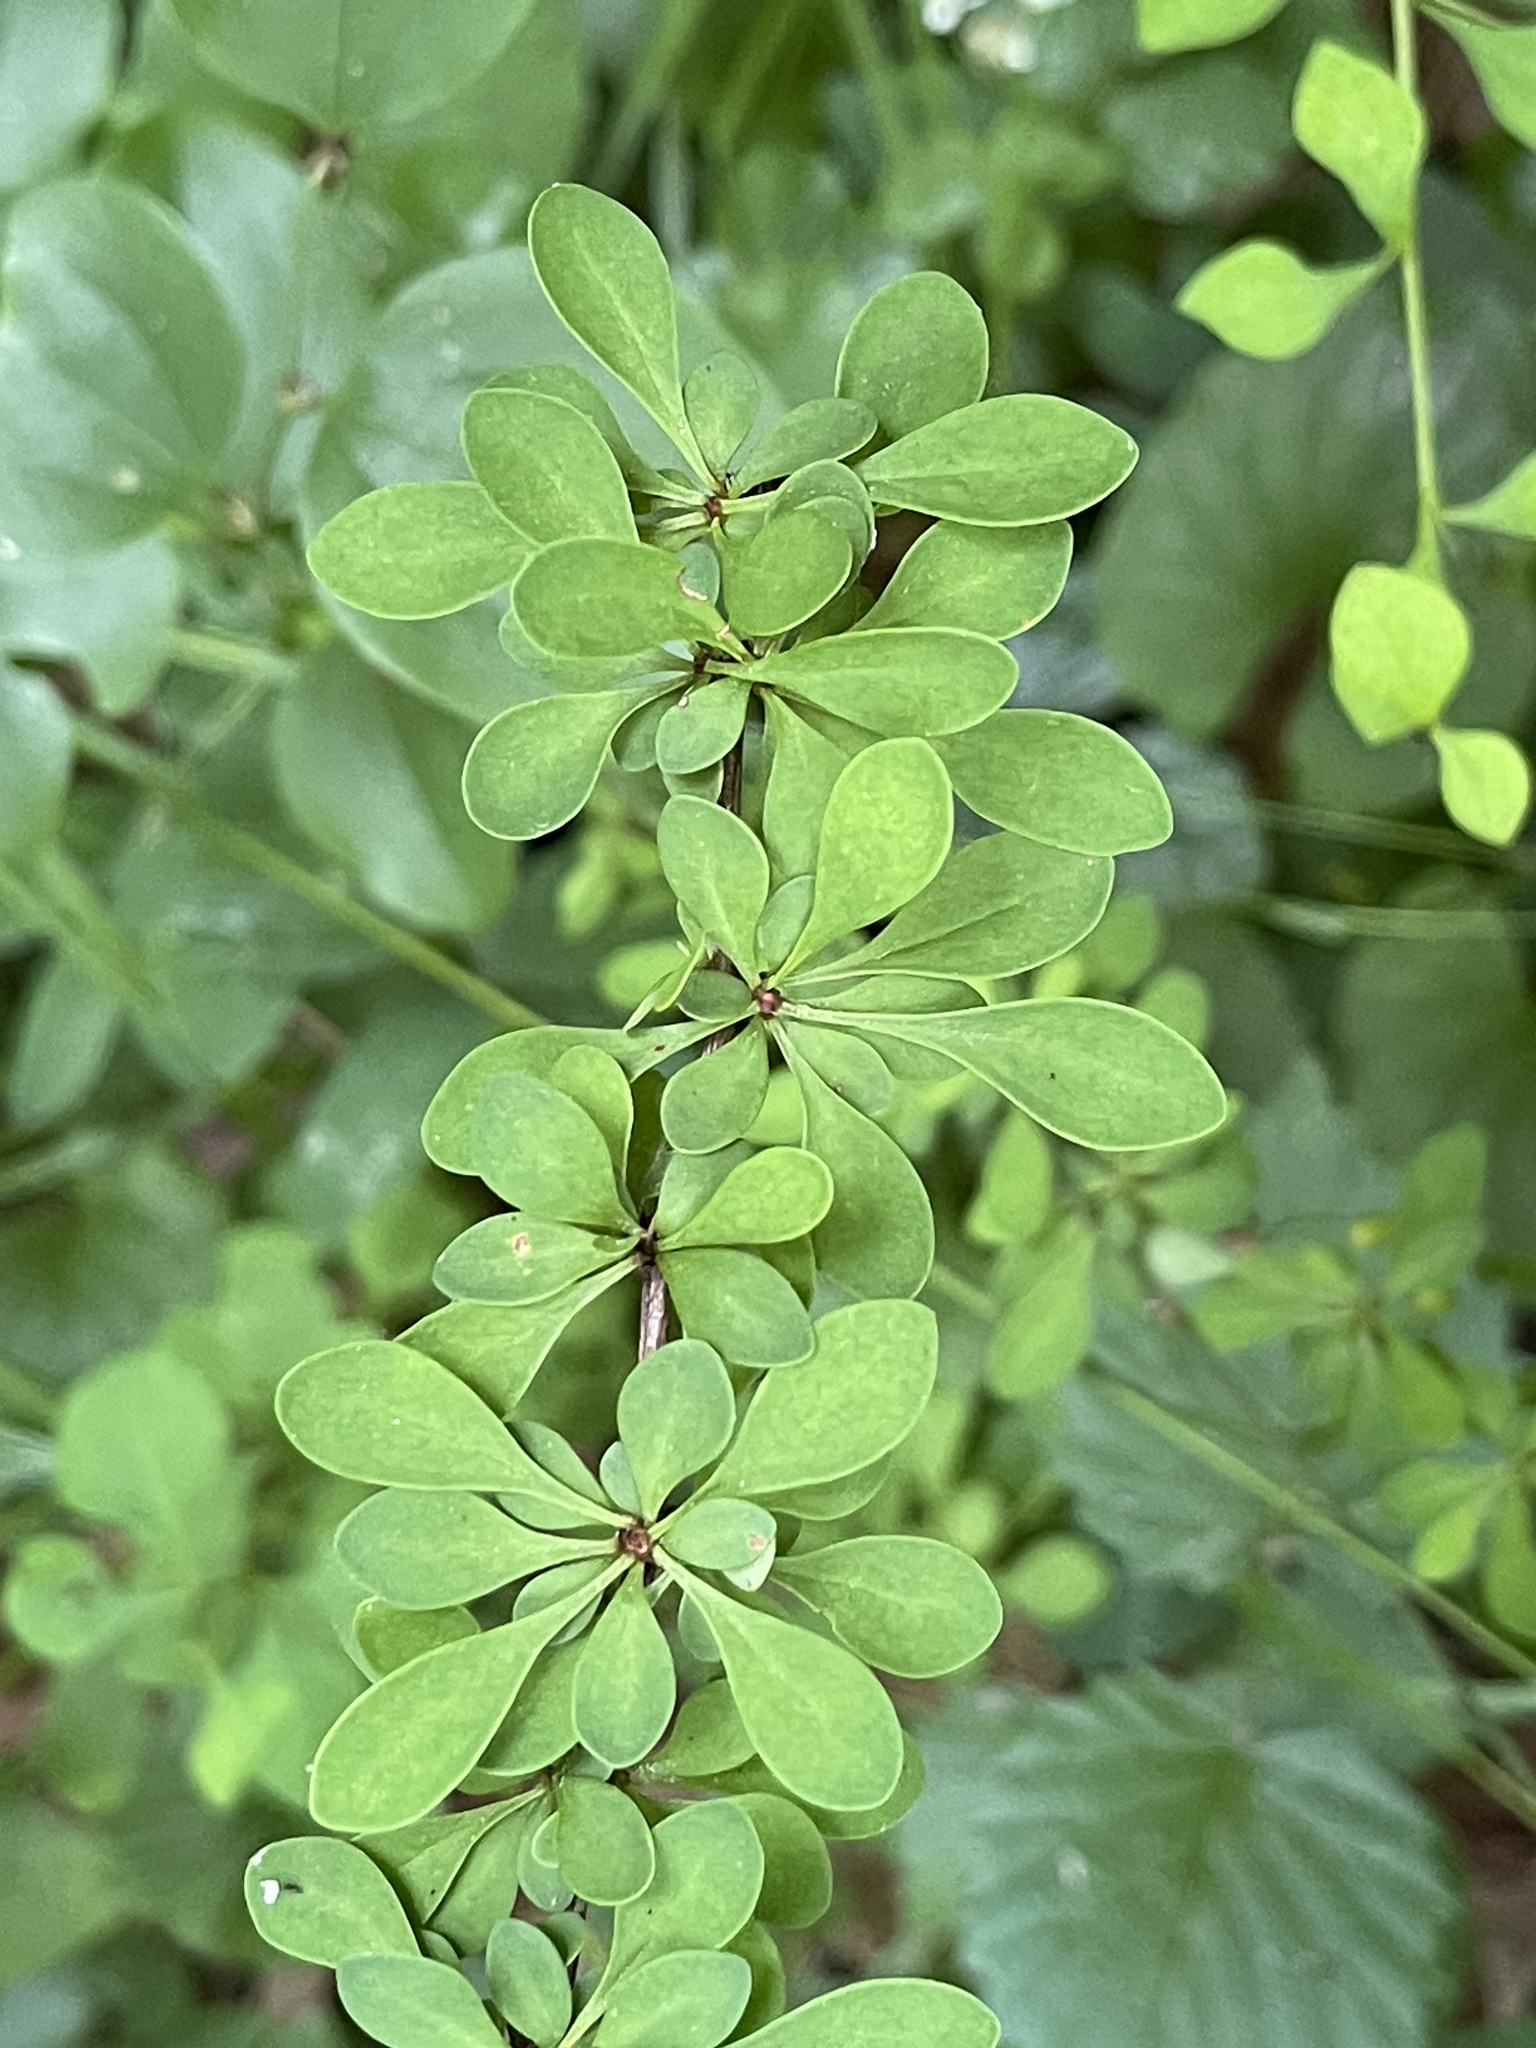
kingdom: Plantae
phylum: Tracheophyta
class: Magnoliopsida
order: Ranunculales
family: Berberidaceae
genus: Berberis
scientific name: Berberis thunbergii
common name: Japanese barberry
